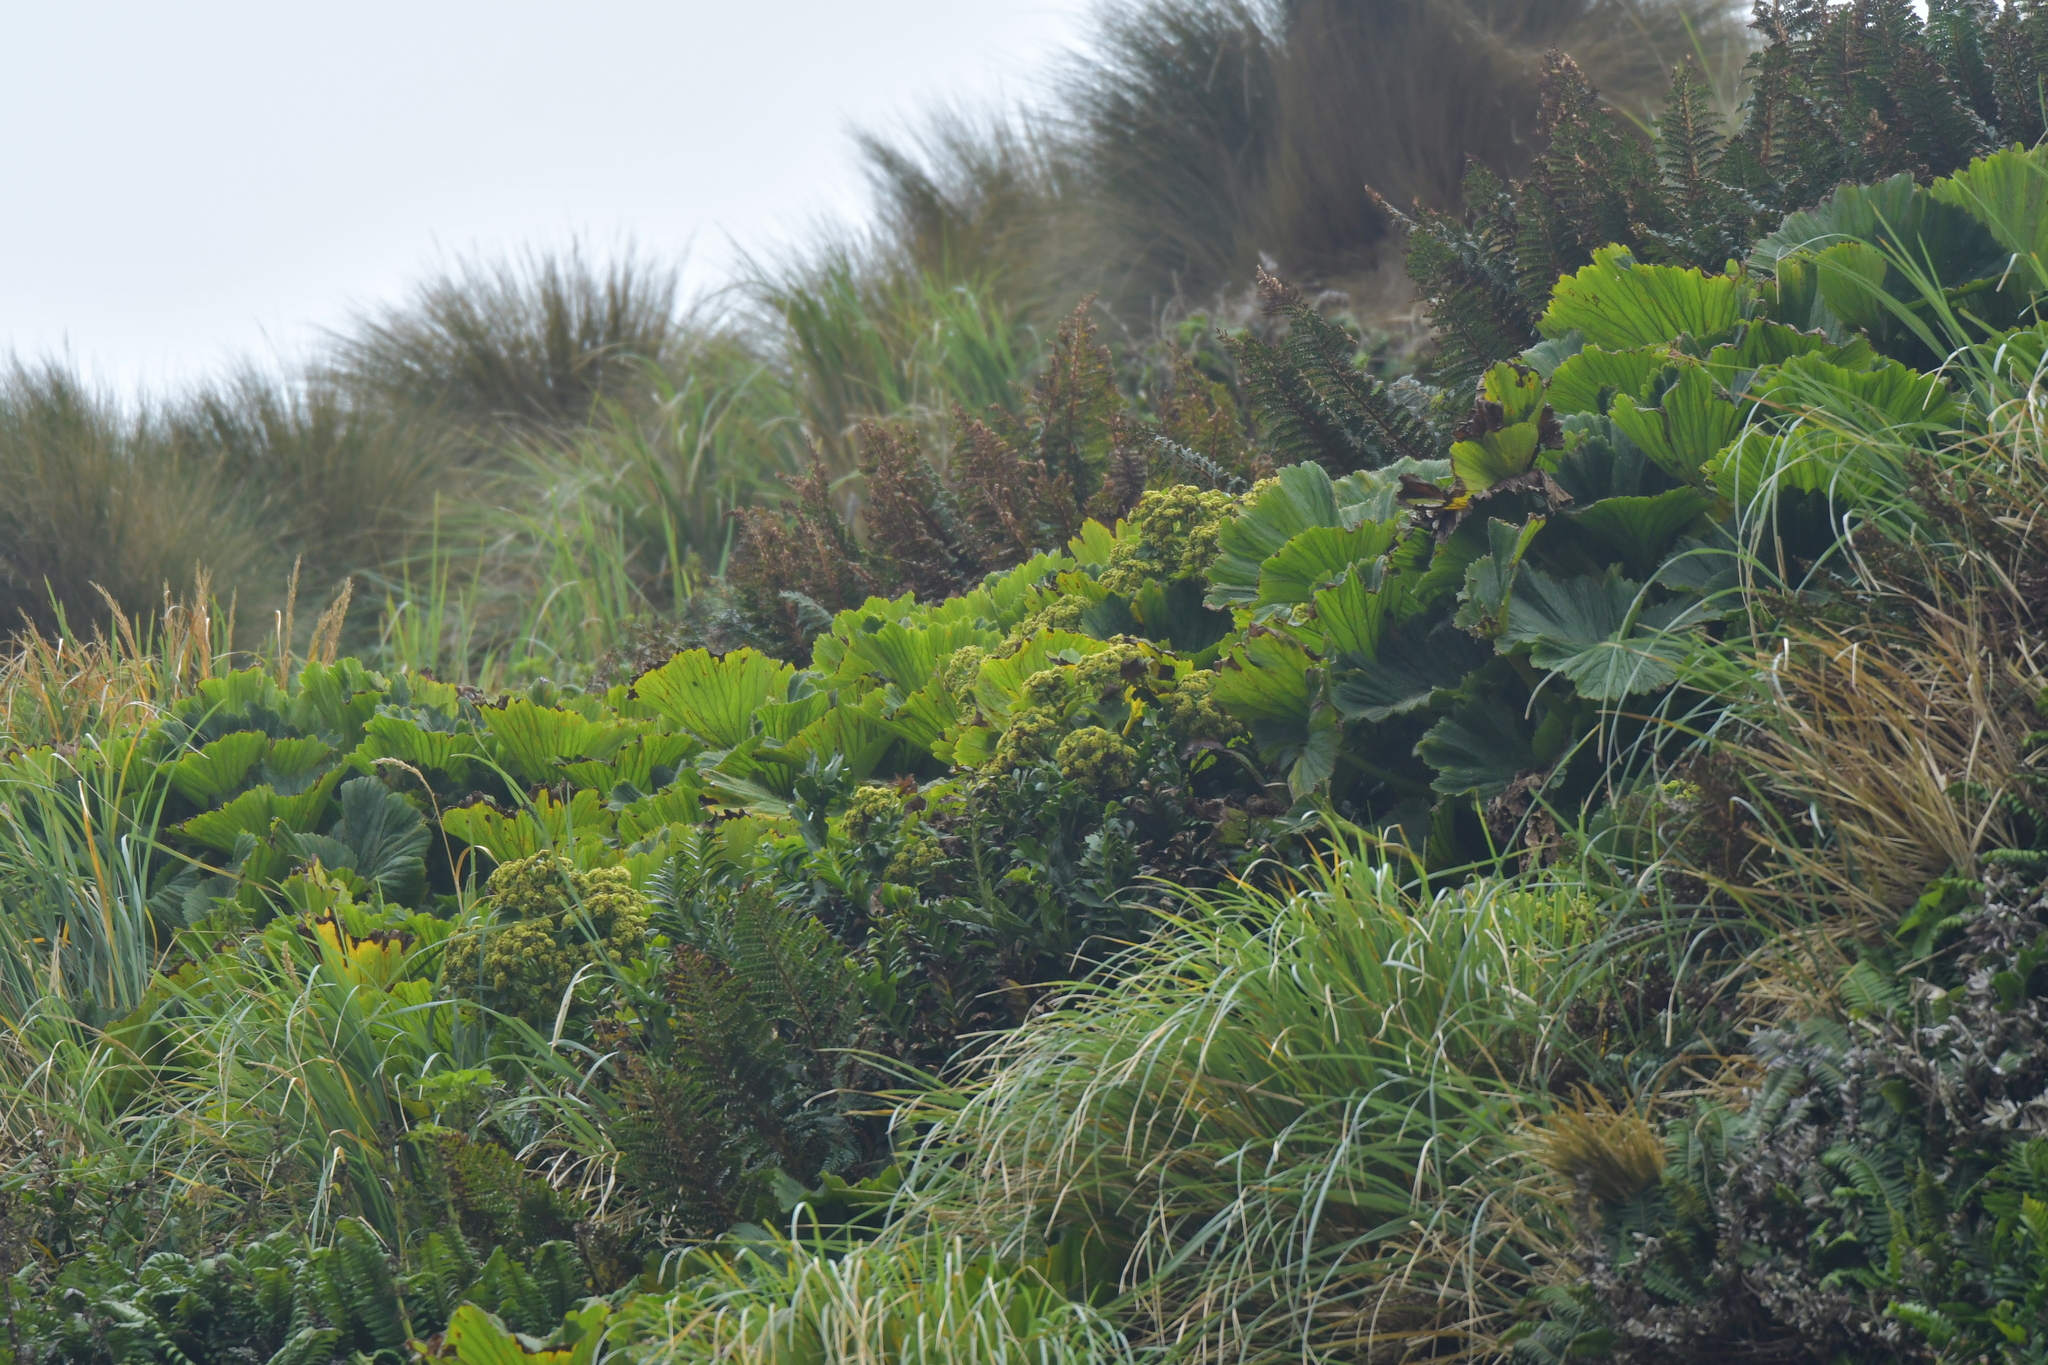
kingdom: Plantae
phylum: Tracheophyta
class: Magnoliopsida
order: Apiales
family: Apiaceae
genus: Azorella
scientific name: Azorella polaris
